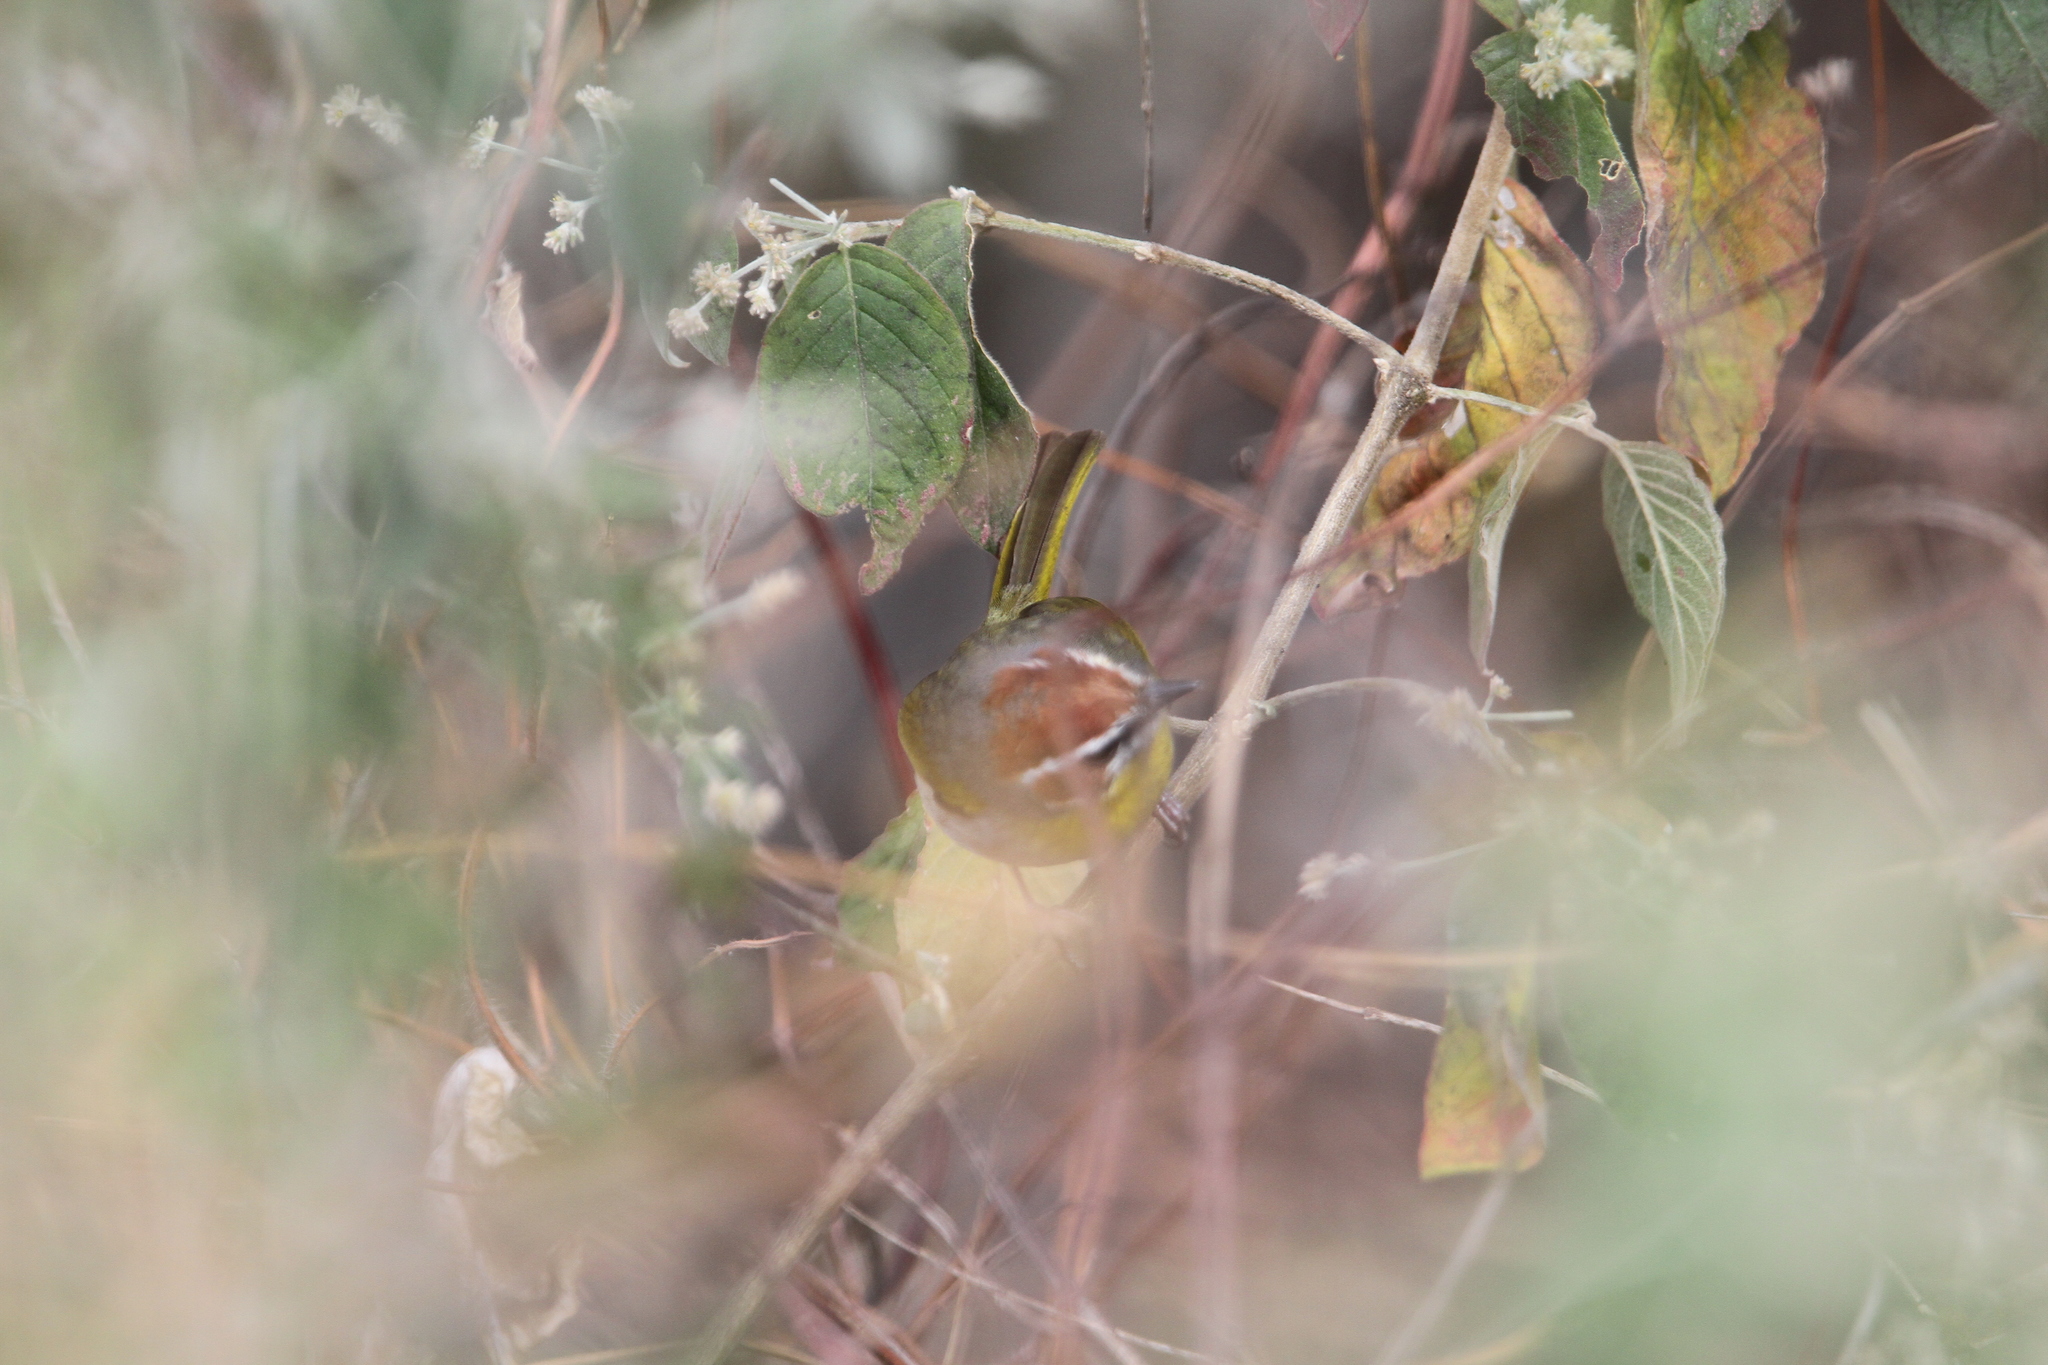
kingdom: Animalia
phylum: Chordata
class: Aves
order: Passeriformes
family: Parulidae
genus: Basileuterus
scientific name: Basileuterus rufifrons
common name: Rufous-capped warbler
